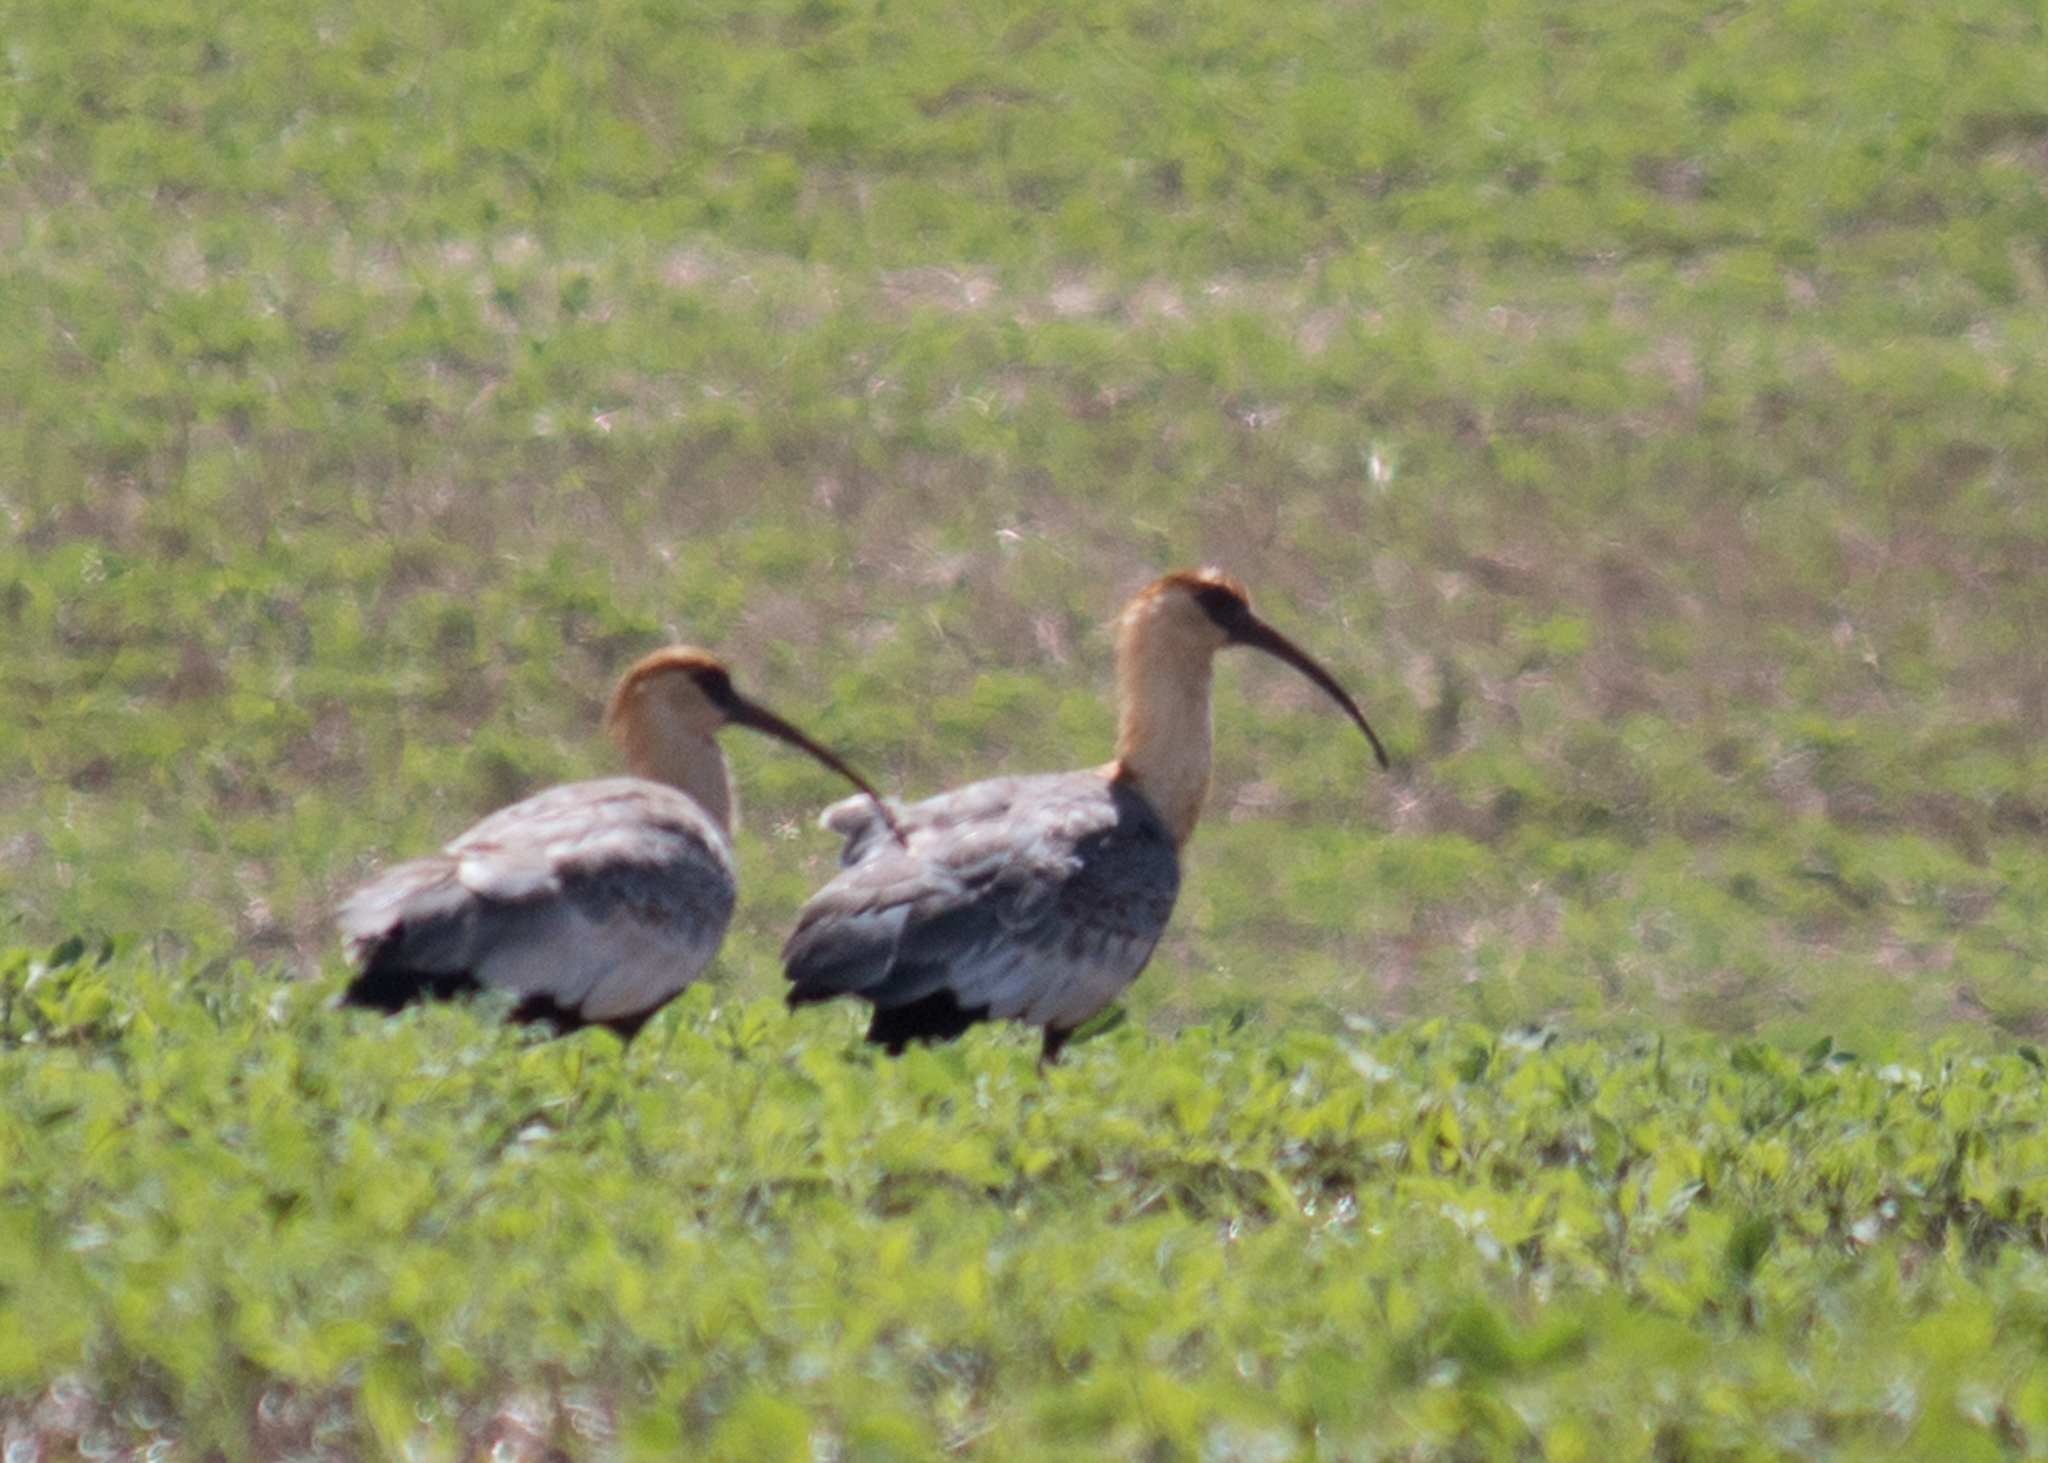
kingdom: Animalia
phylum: Chordata
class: Aves
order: Pelecaniformes
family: Threskiornithidae
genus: Theristicus
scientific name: Theristicus caudatus
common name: Buff-necked ibis
